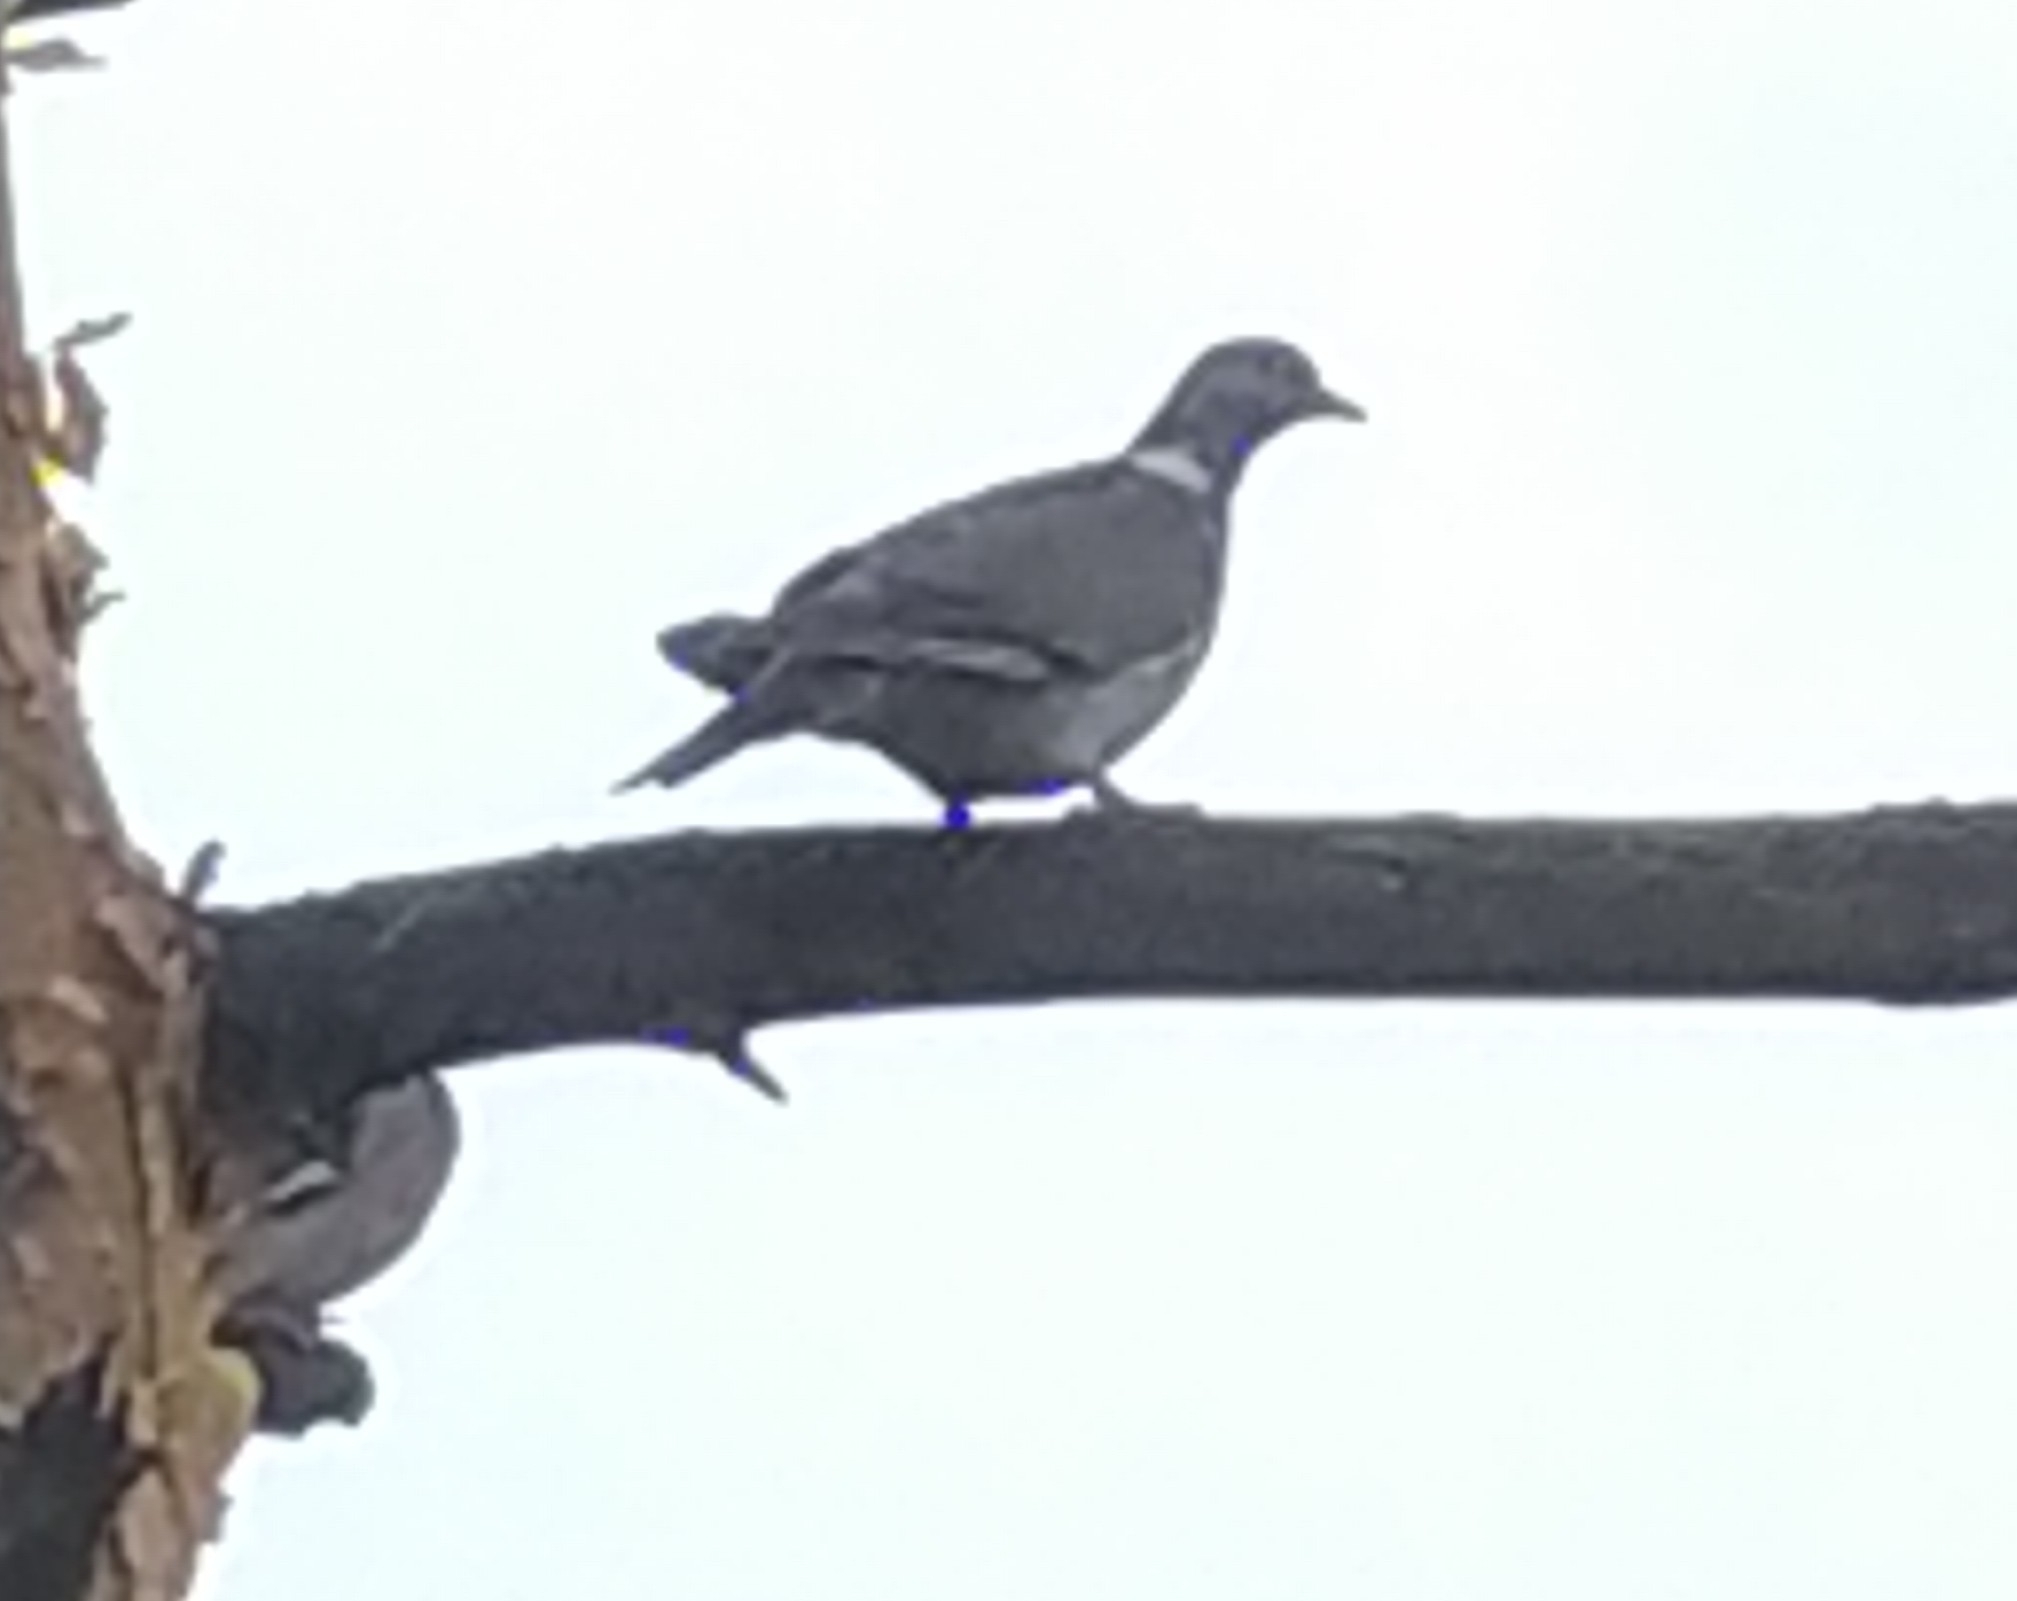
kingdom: Animalia
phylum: Chordata
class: Aves
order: Columbiformes
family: Columbidae
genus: Columba
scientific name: Columba palumbus
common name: Common wood pigeon
